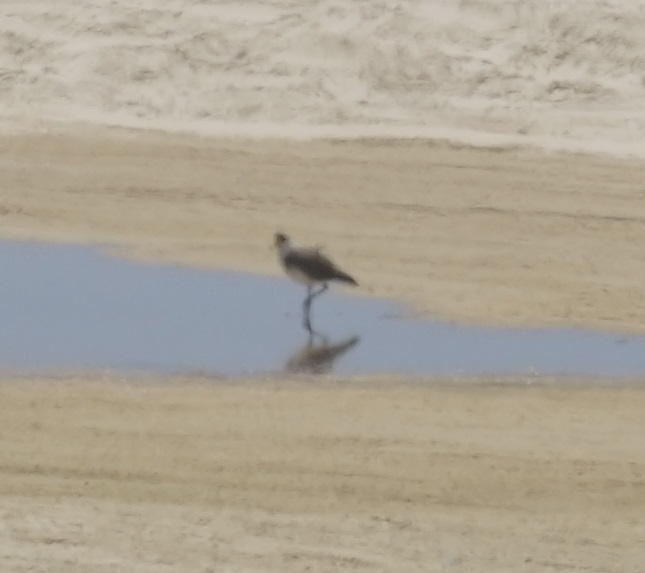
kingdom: Animalia
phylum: Chordata
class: Aves
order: Charadriiformes
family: Charadriidae
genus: Vanellus
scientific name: Vanellus miles
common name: Masked lapwing
